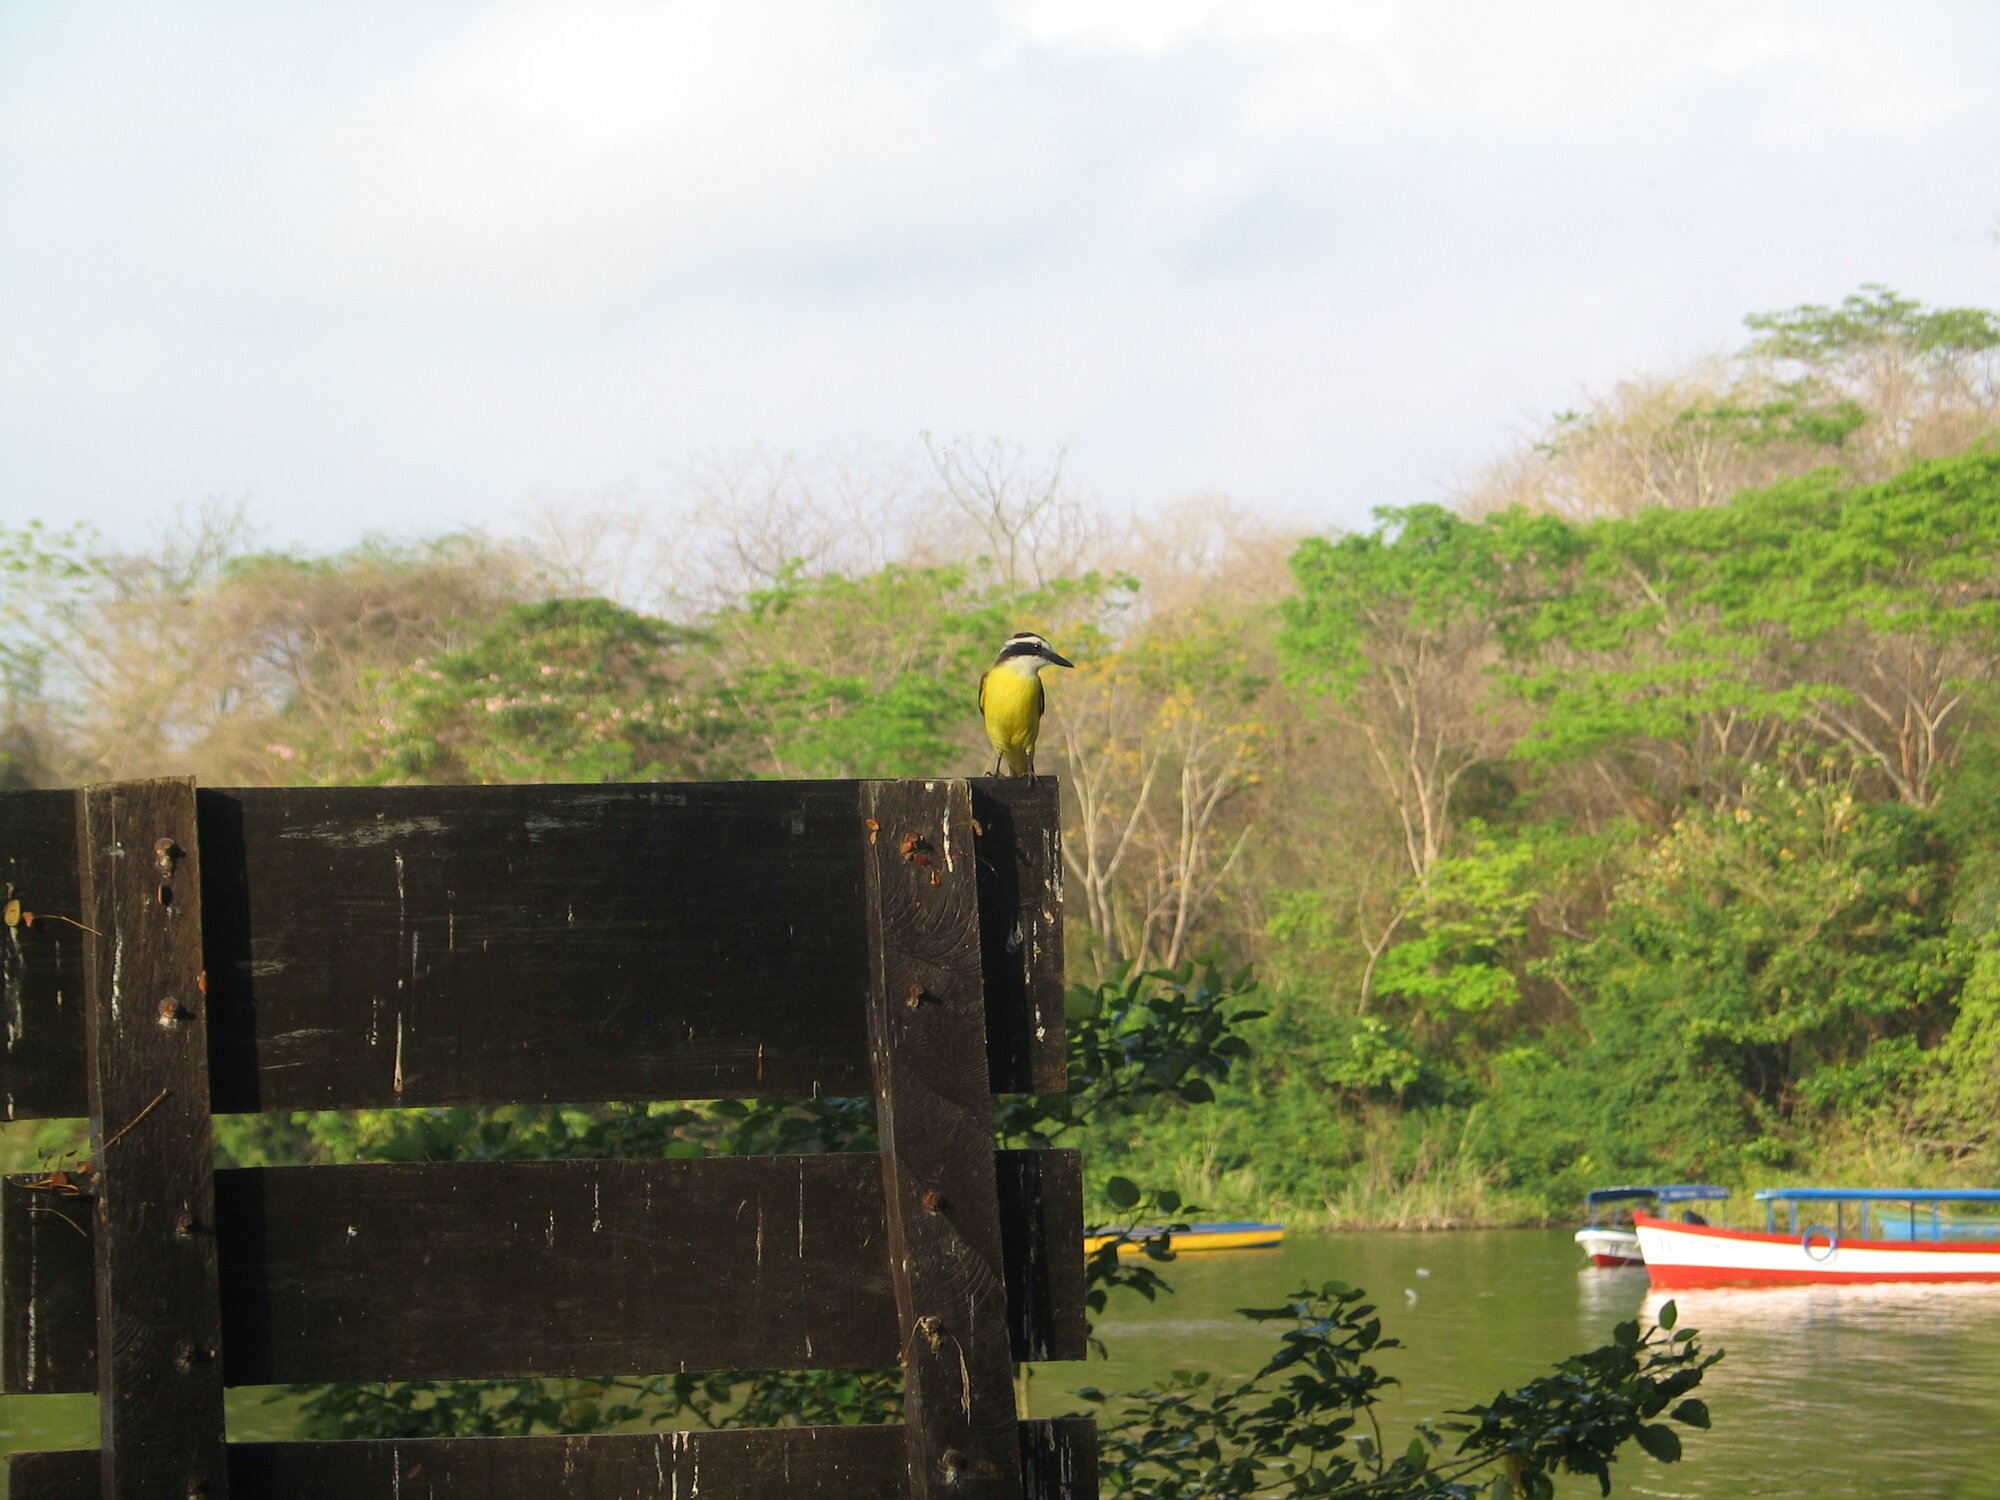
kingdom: Animalia
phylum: Chordata
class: Aves
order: Passeriformes
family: Tyrannidae
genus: Pitangus
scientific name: Pitangus sulphuratus
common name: Great kiskadee
